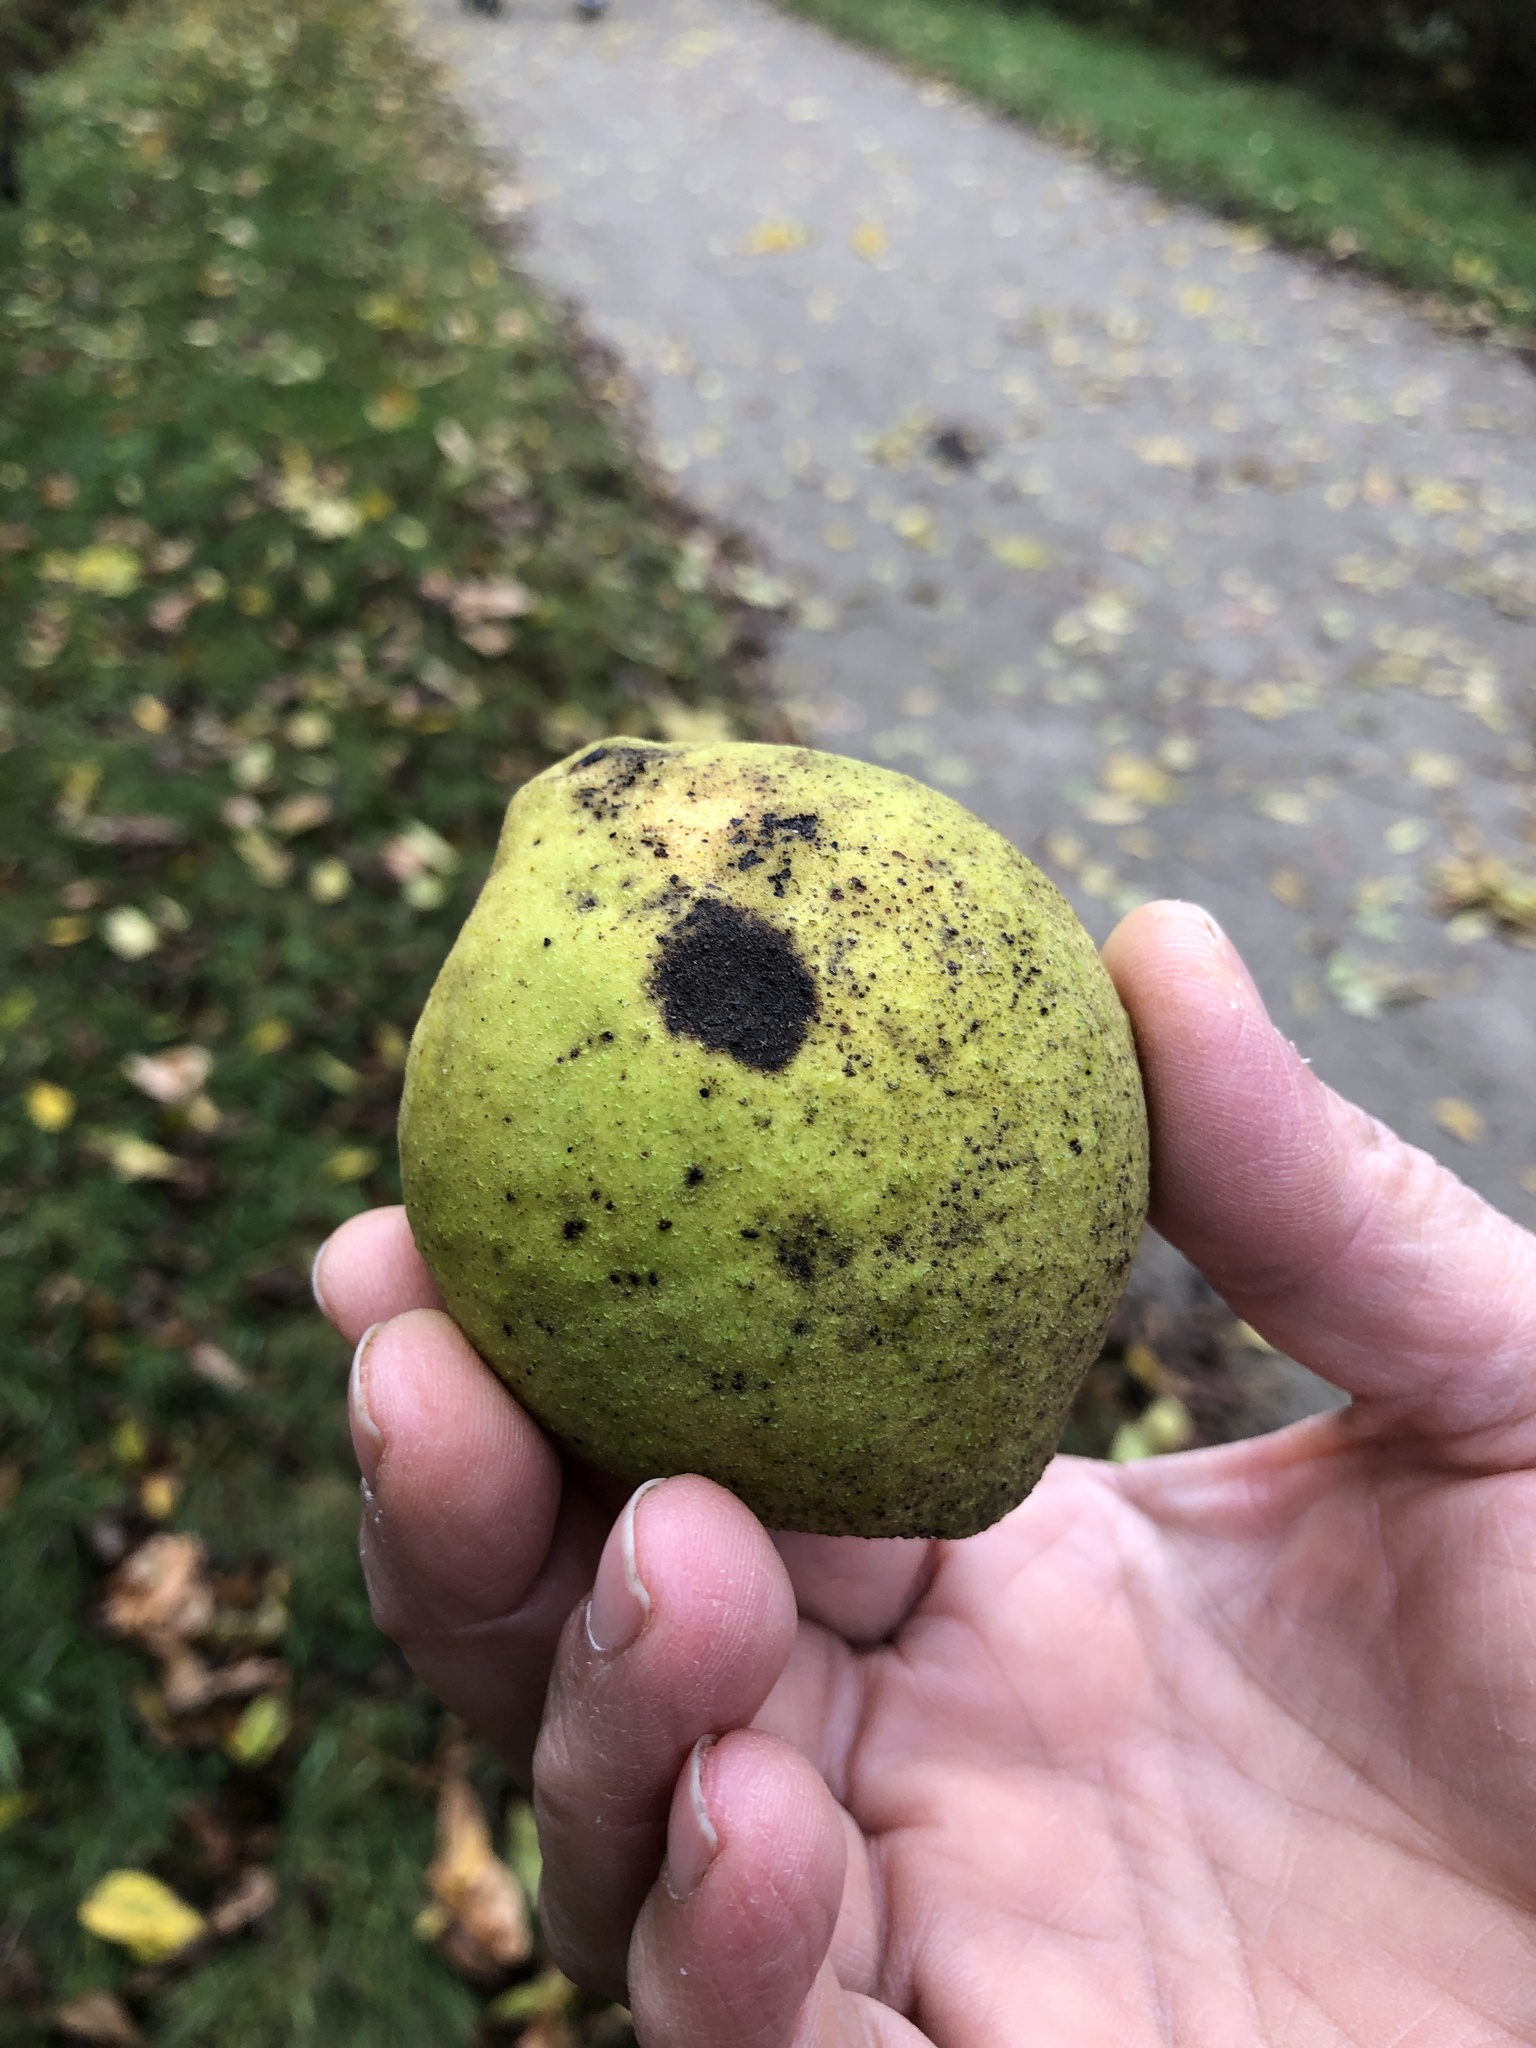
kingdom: Plantae
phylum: Tracheophyta
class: Magnoliopsida
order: Fagales
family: Juglandaceae
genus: Juglans
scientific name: Juglans nigra
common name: Black walnut
